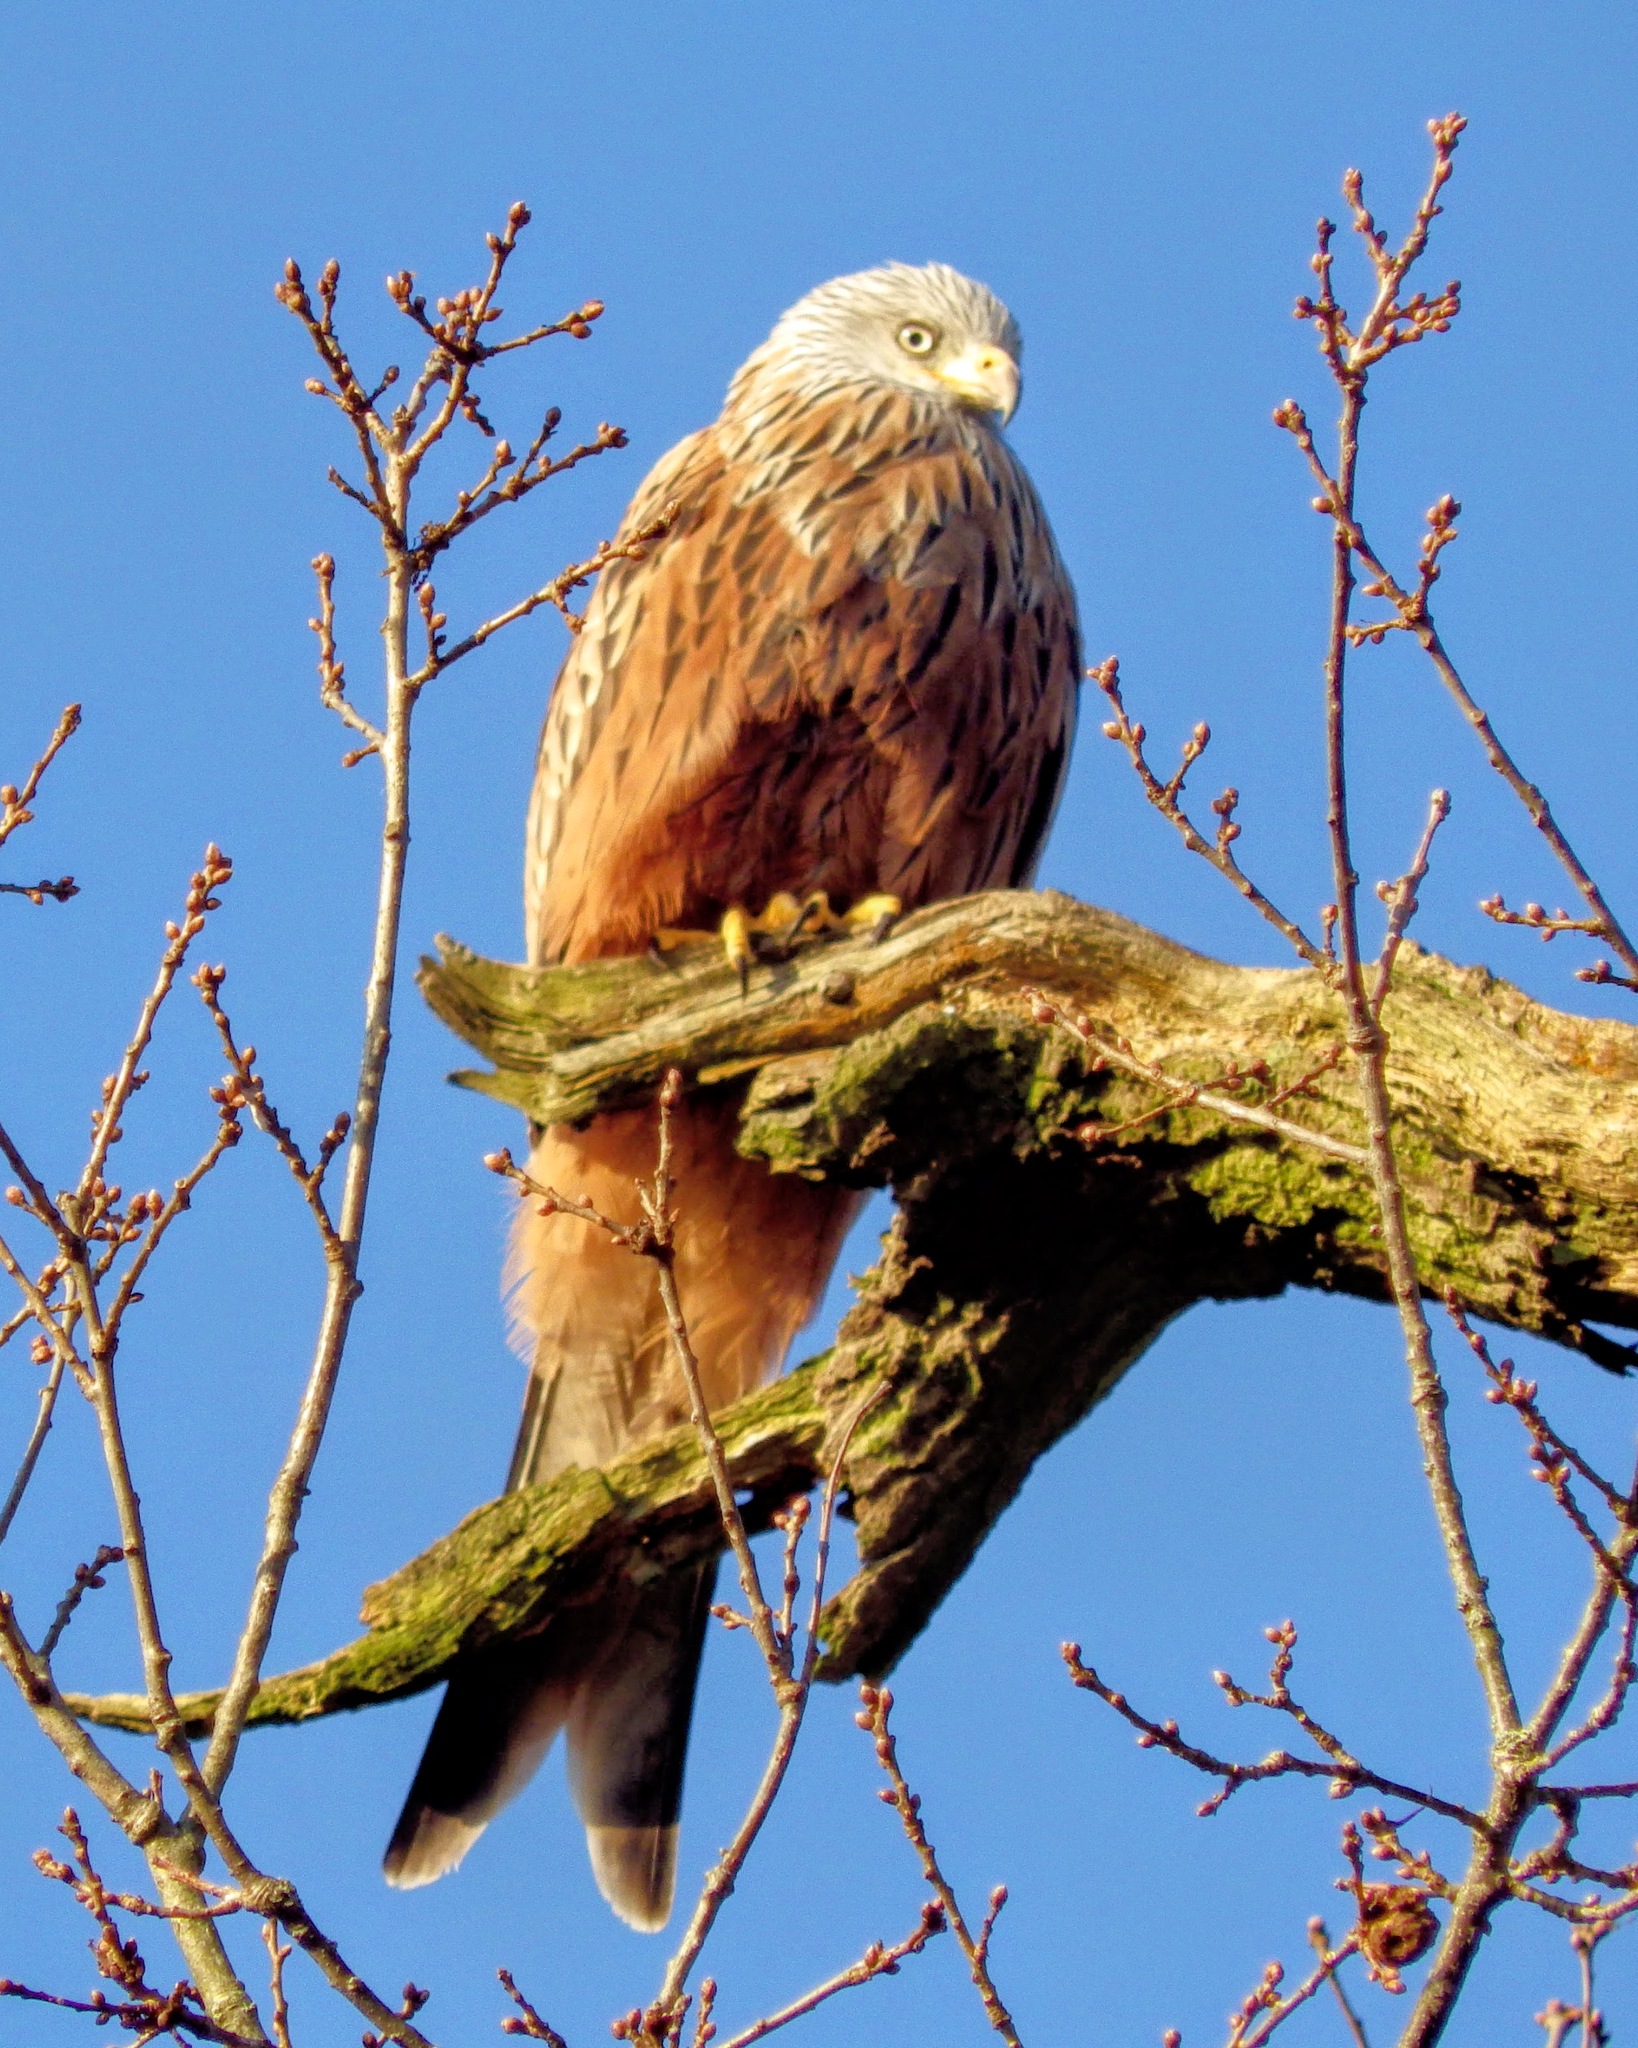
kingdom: Animalia
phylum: Chordata
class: Aves
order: Accipitriformes
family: Accipitridae
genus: Milvus
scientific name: Milvus milvus
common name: Red kite
